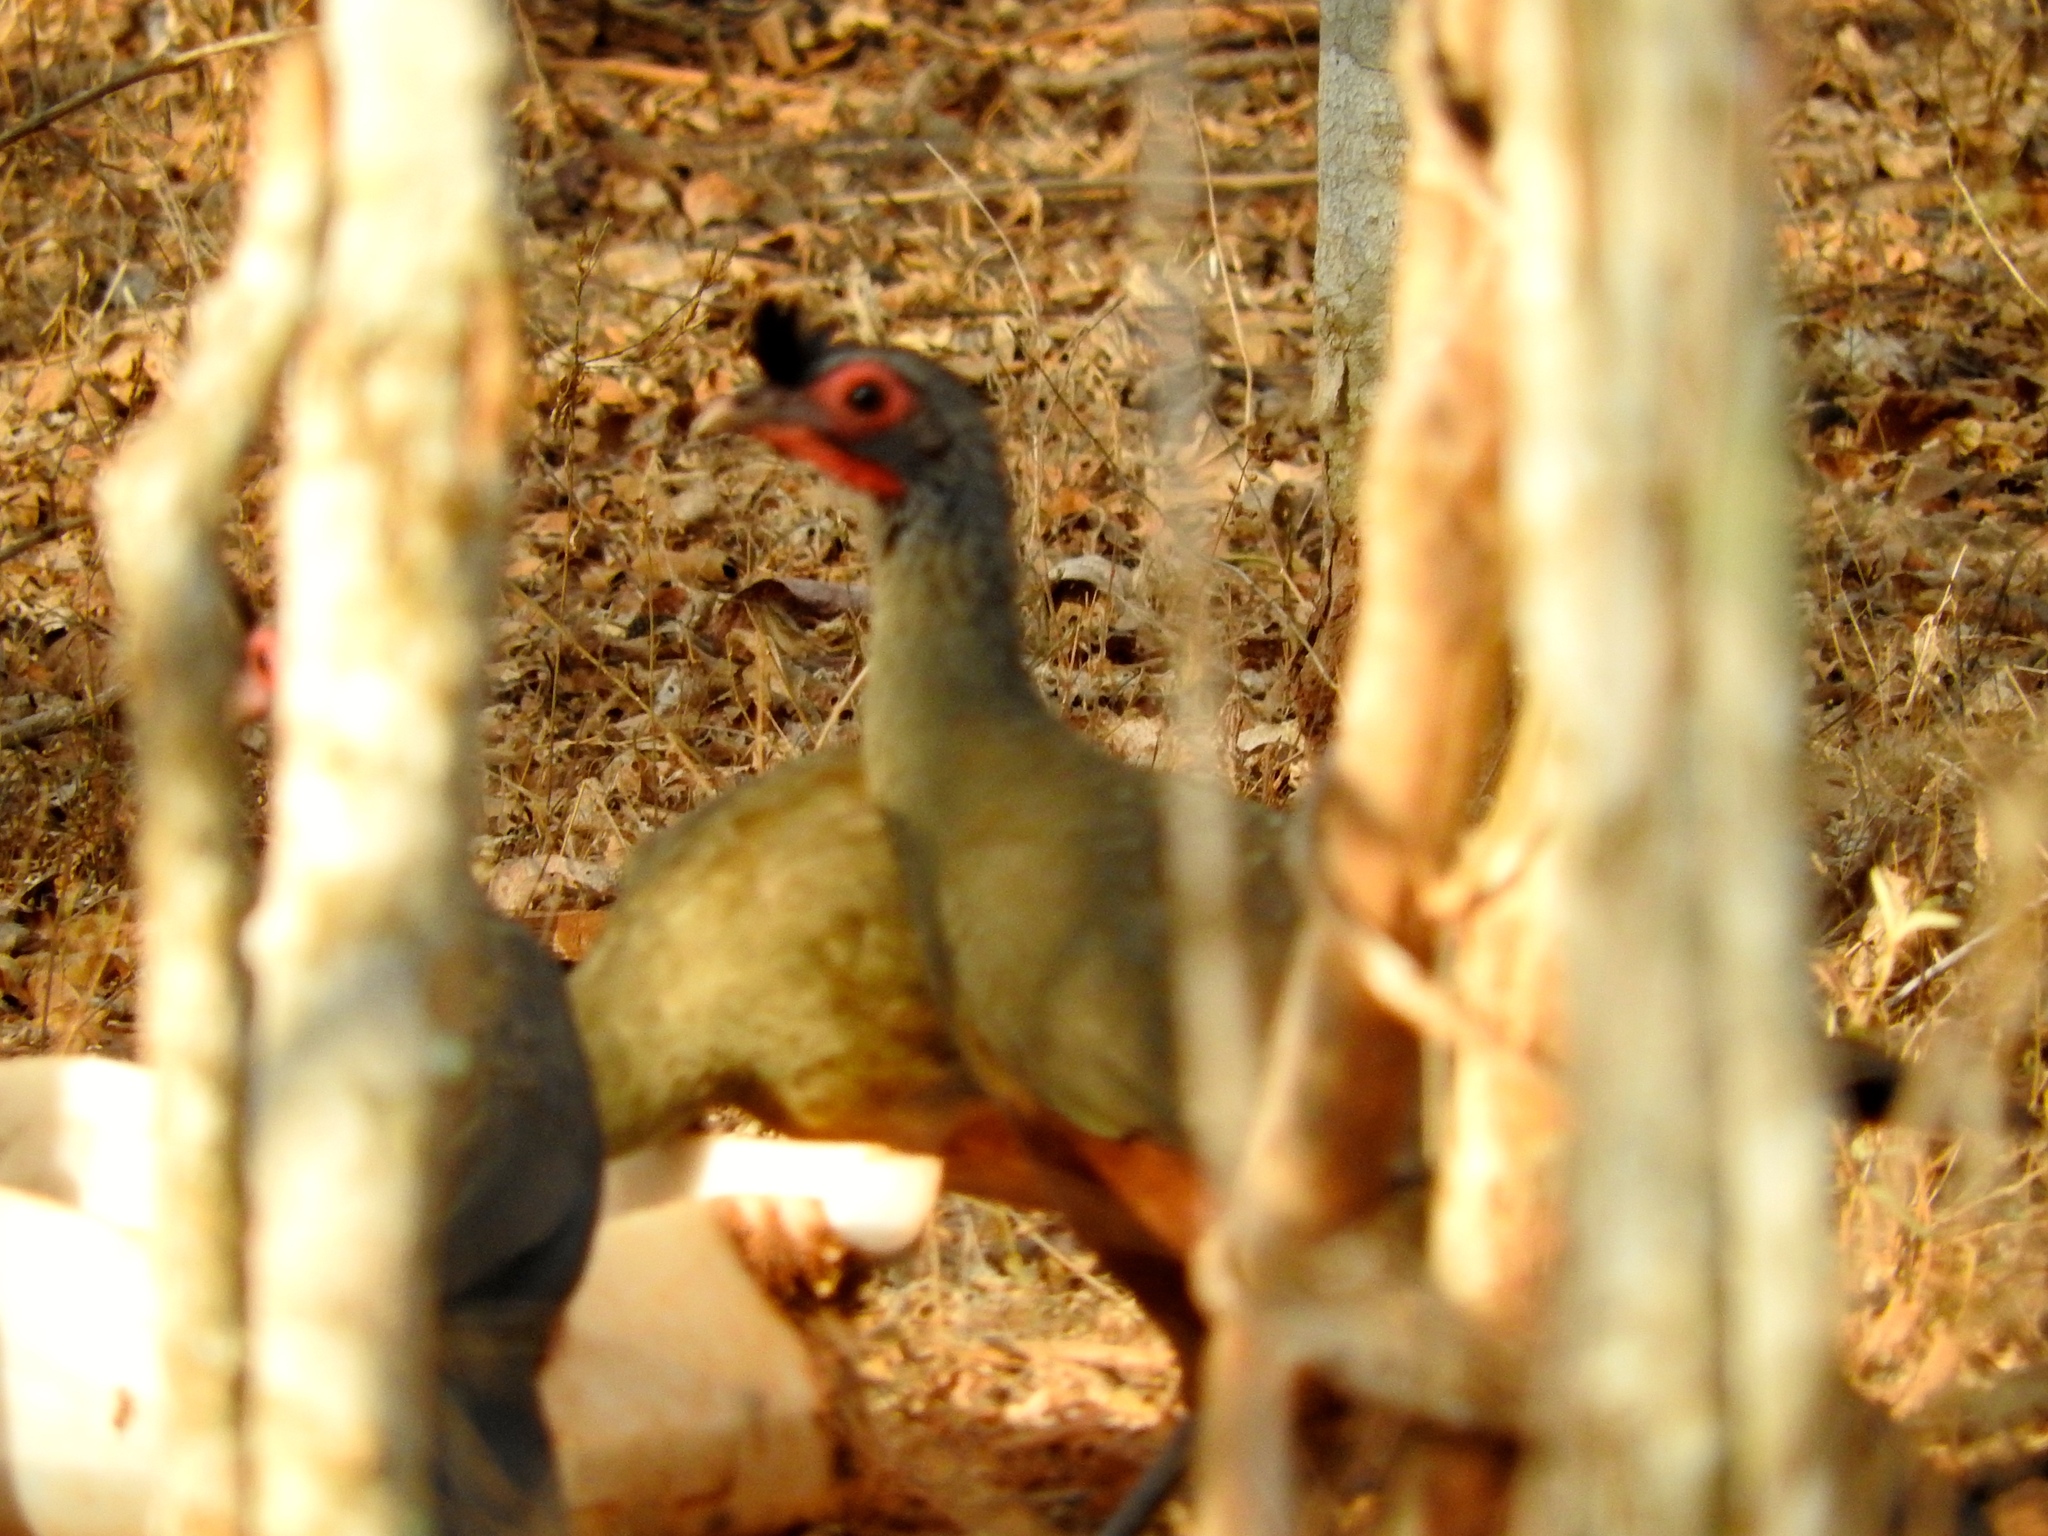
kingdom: Animalia
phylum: Chordata
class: Aves
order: Galliformes
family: Cracidae
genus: Ortalis
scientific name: Ortalis wagleri
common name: Rufous-bellied chachalaca
